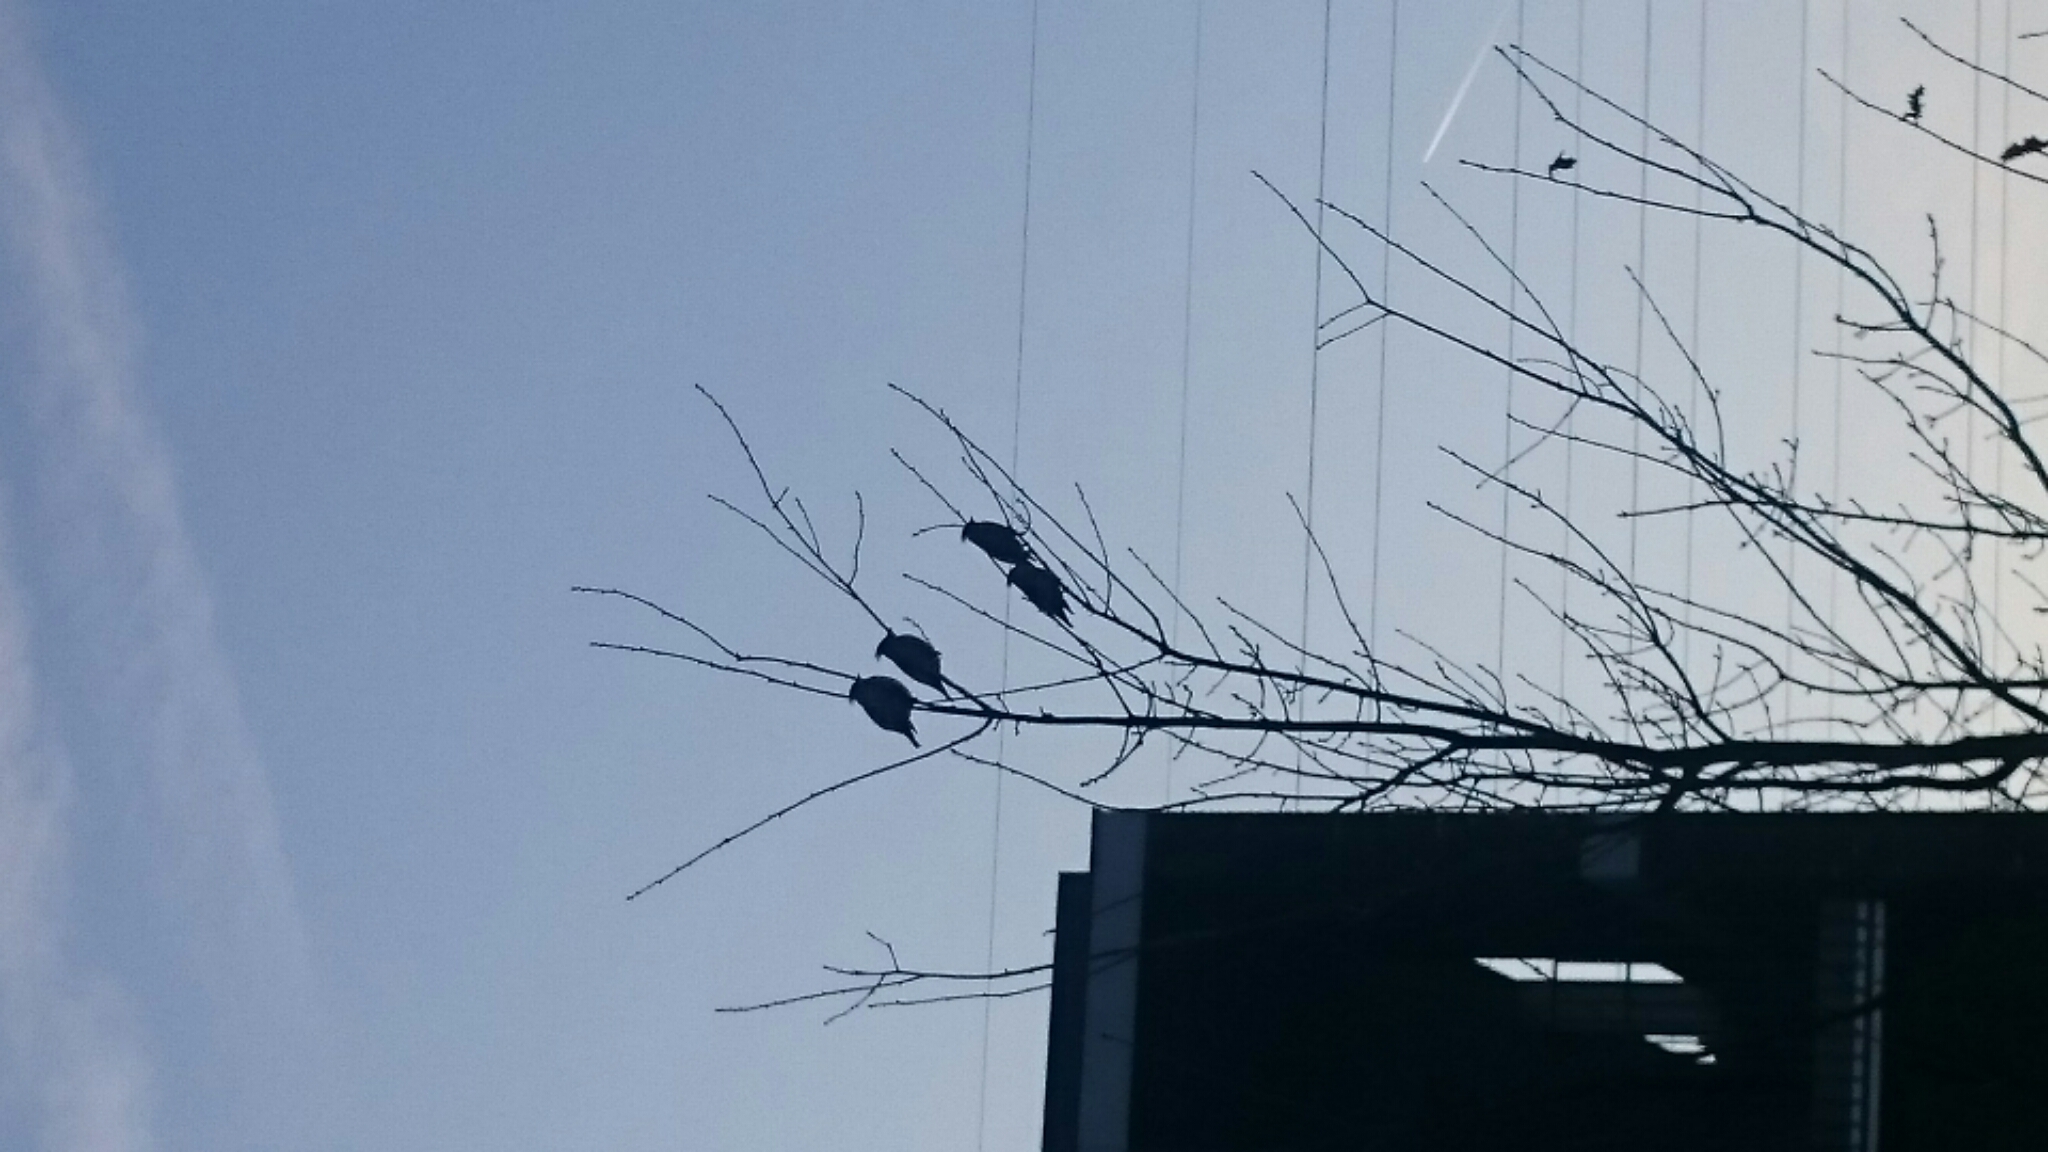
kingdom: Animalia
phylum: Chordata
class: Aves
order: Passeriformes
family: Bombycillidae
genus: Bombycilla
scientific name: Bombycilla garrulus
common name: Bohemian waxwing
